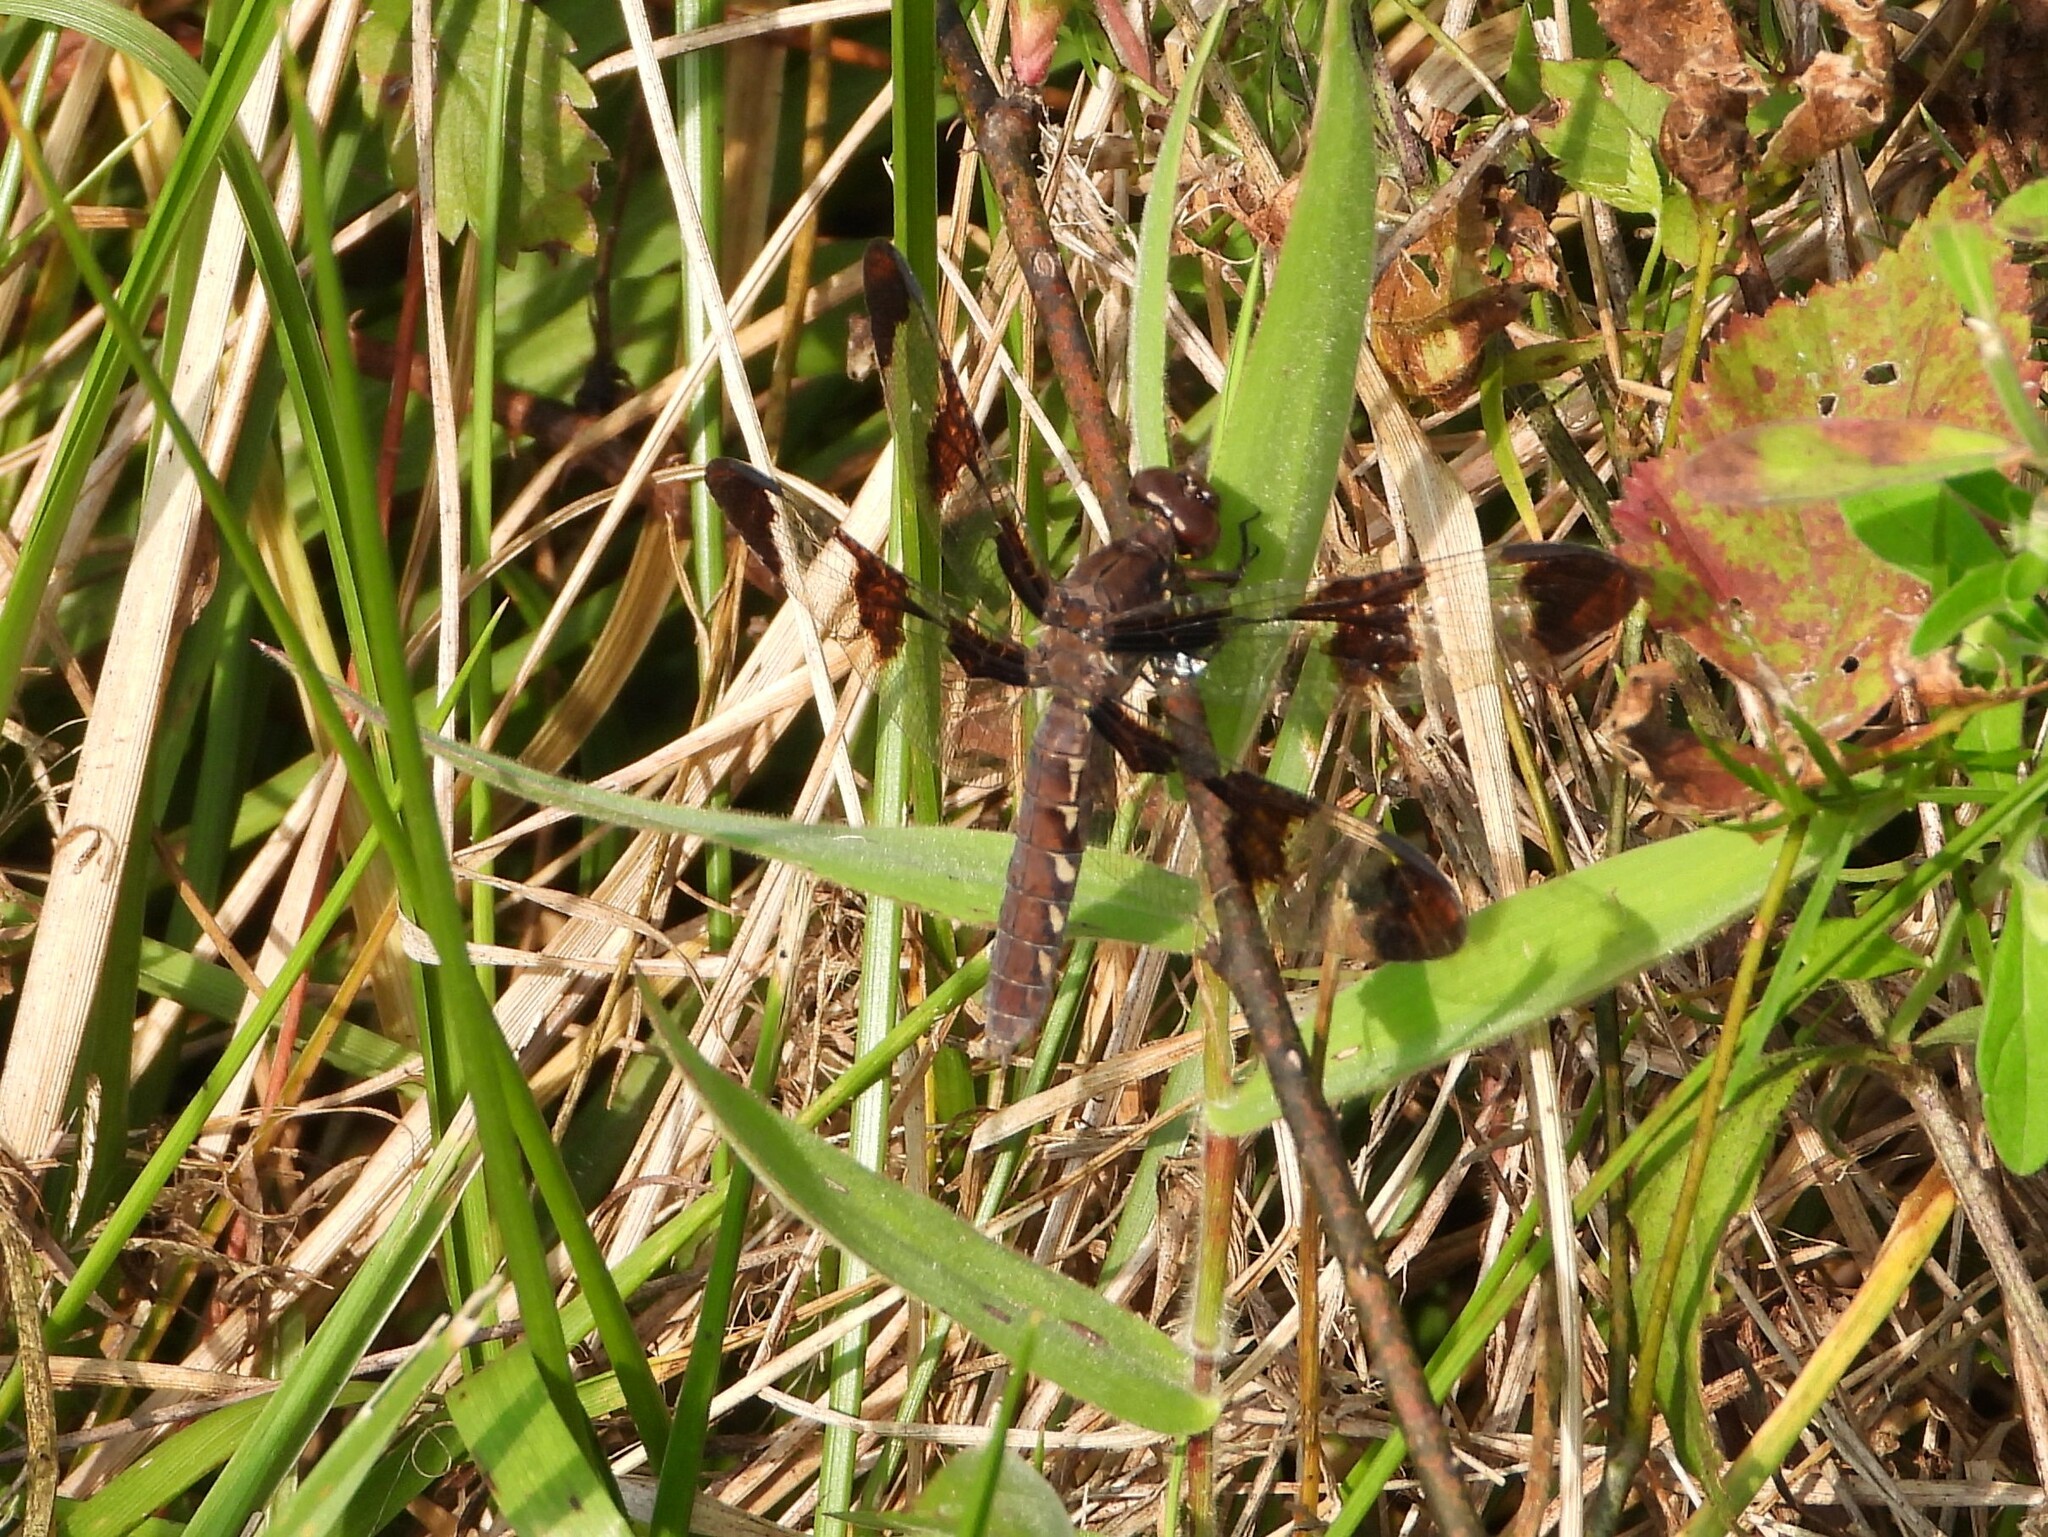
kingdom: Animalia
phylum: Arthropoda
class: Insecta
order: Odonata
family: Libellulidae
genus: Plathemis
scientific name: Plathemis lydia
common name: Common whitetail
